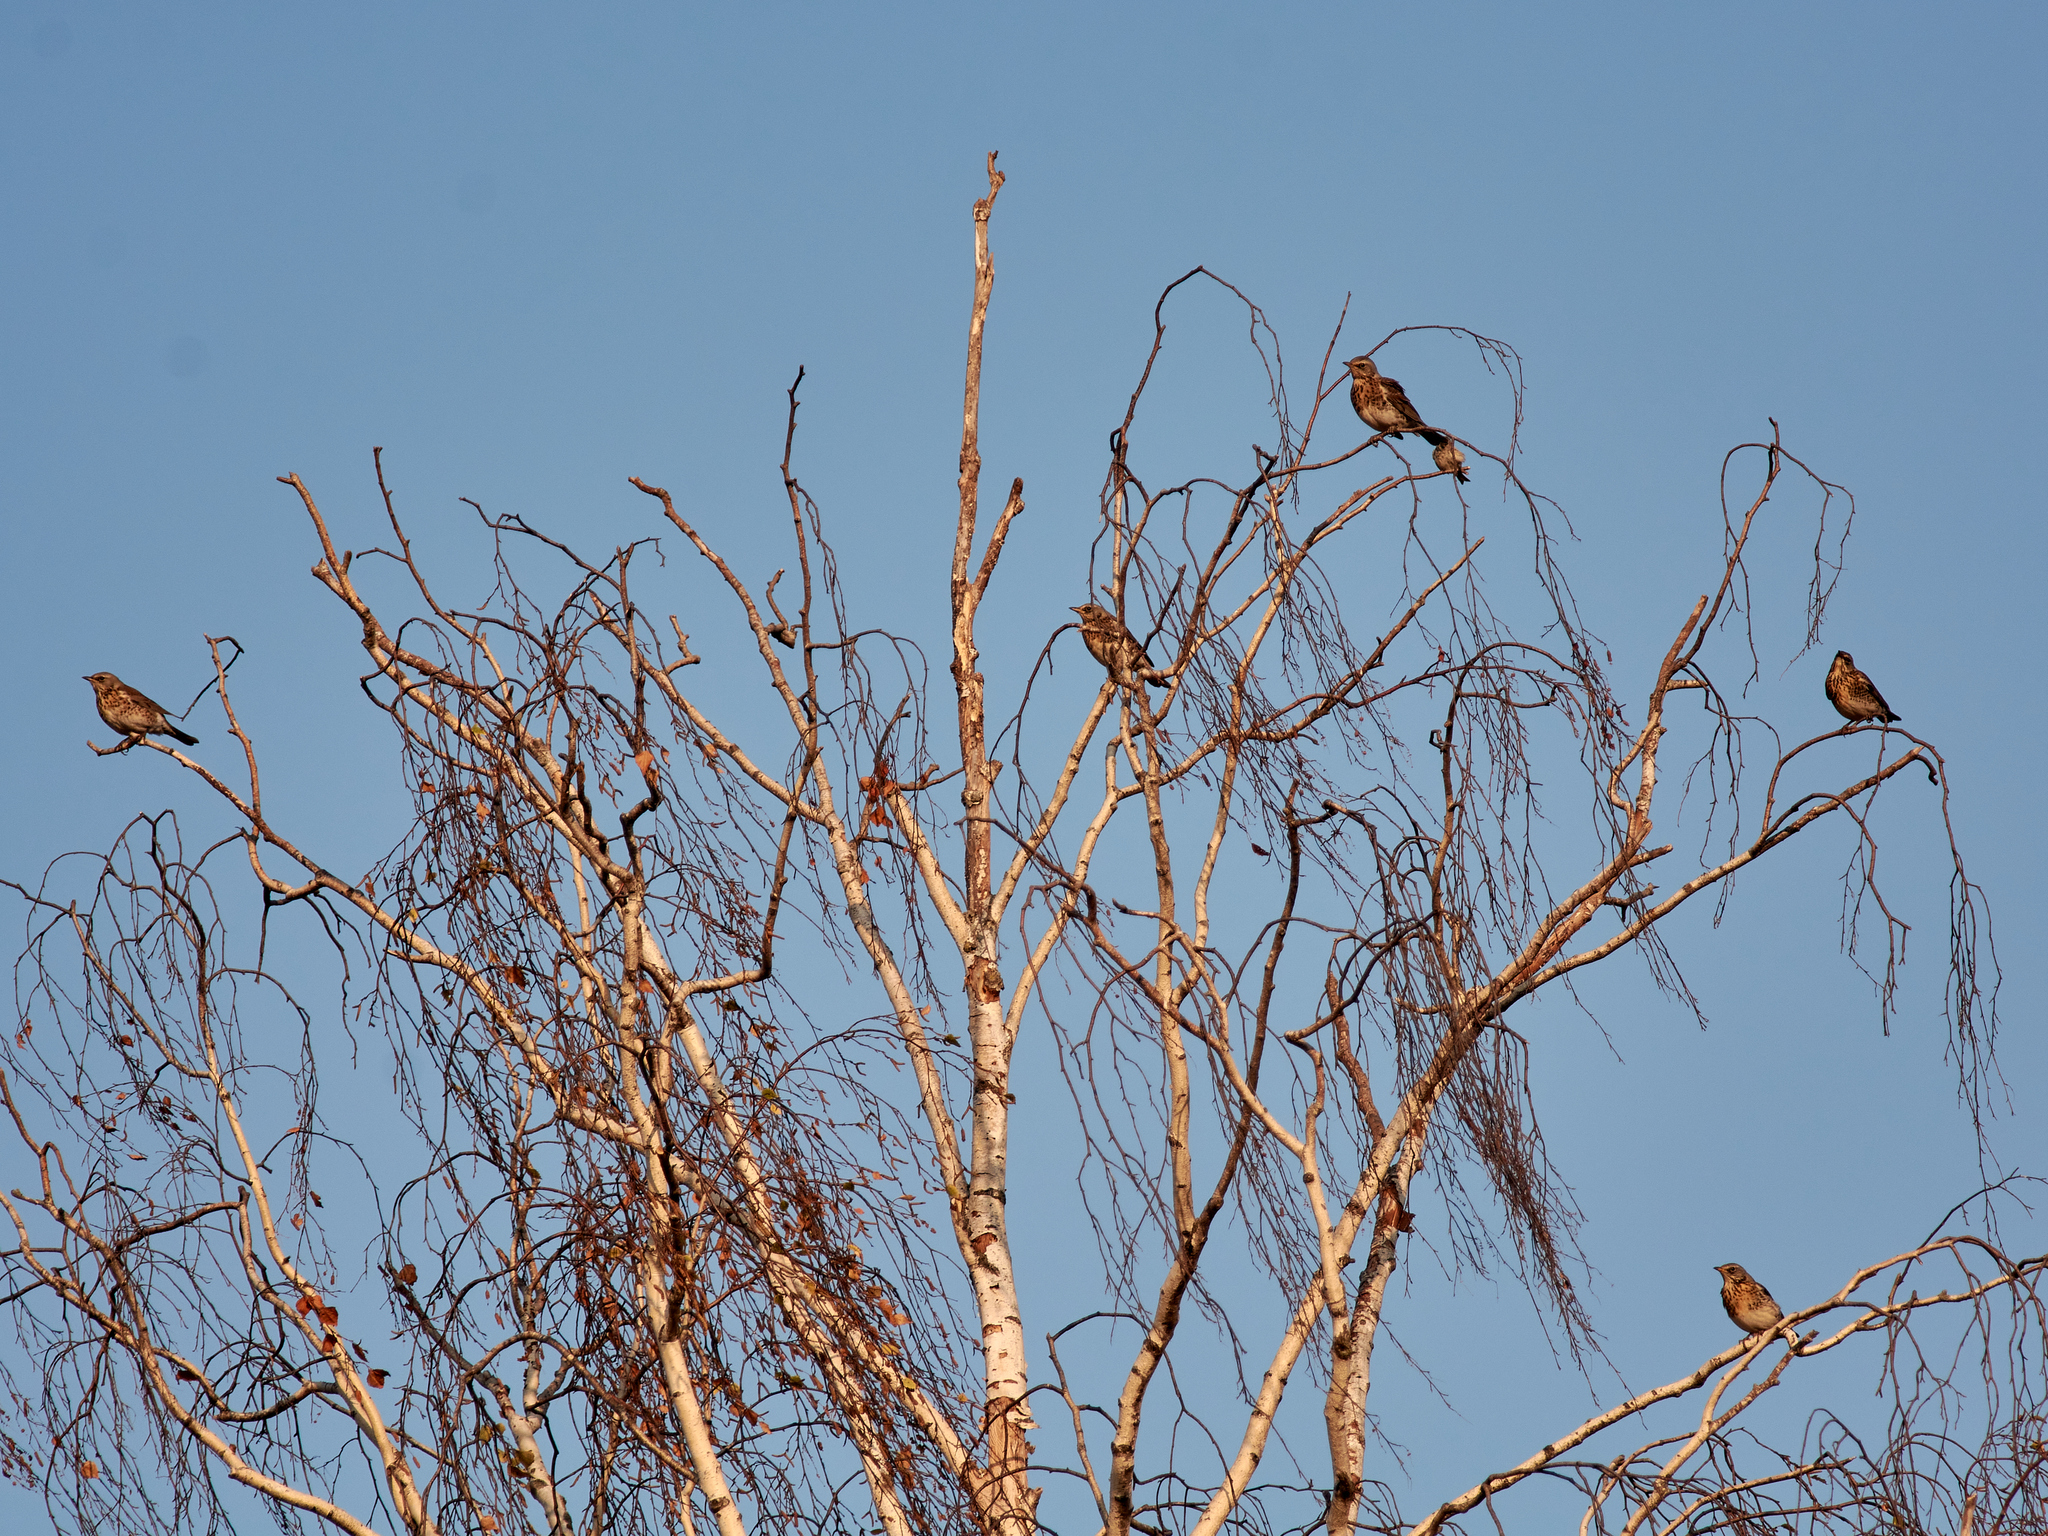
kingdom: Animalia
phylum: Chordata
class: Aves
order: Passeriformes
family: Turdidae
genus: Turdus
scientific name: Turdus pilaris
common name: Fieldfare
